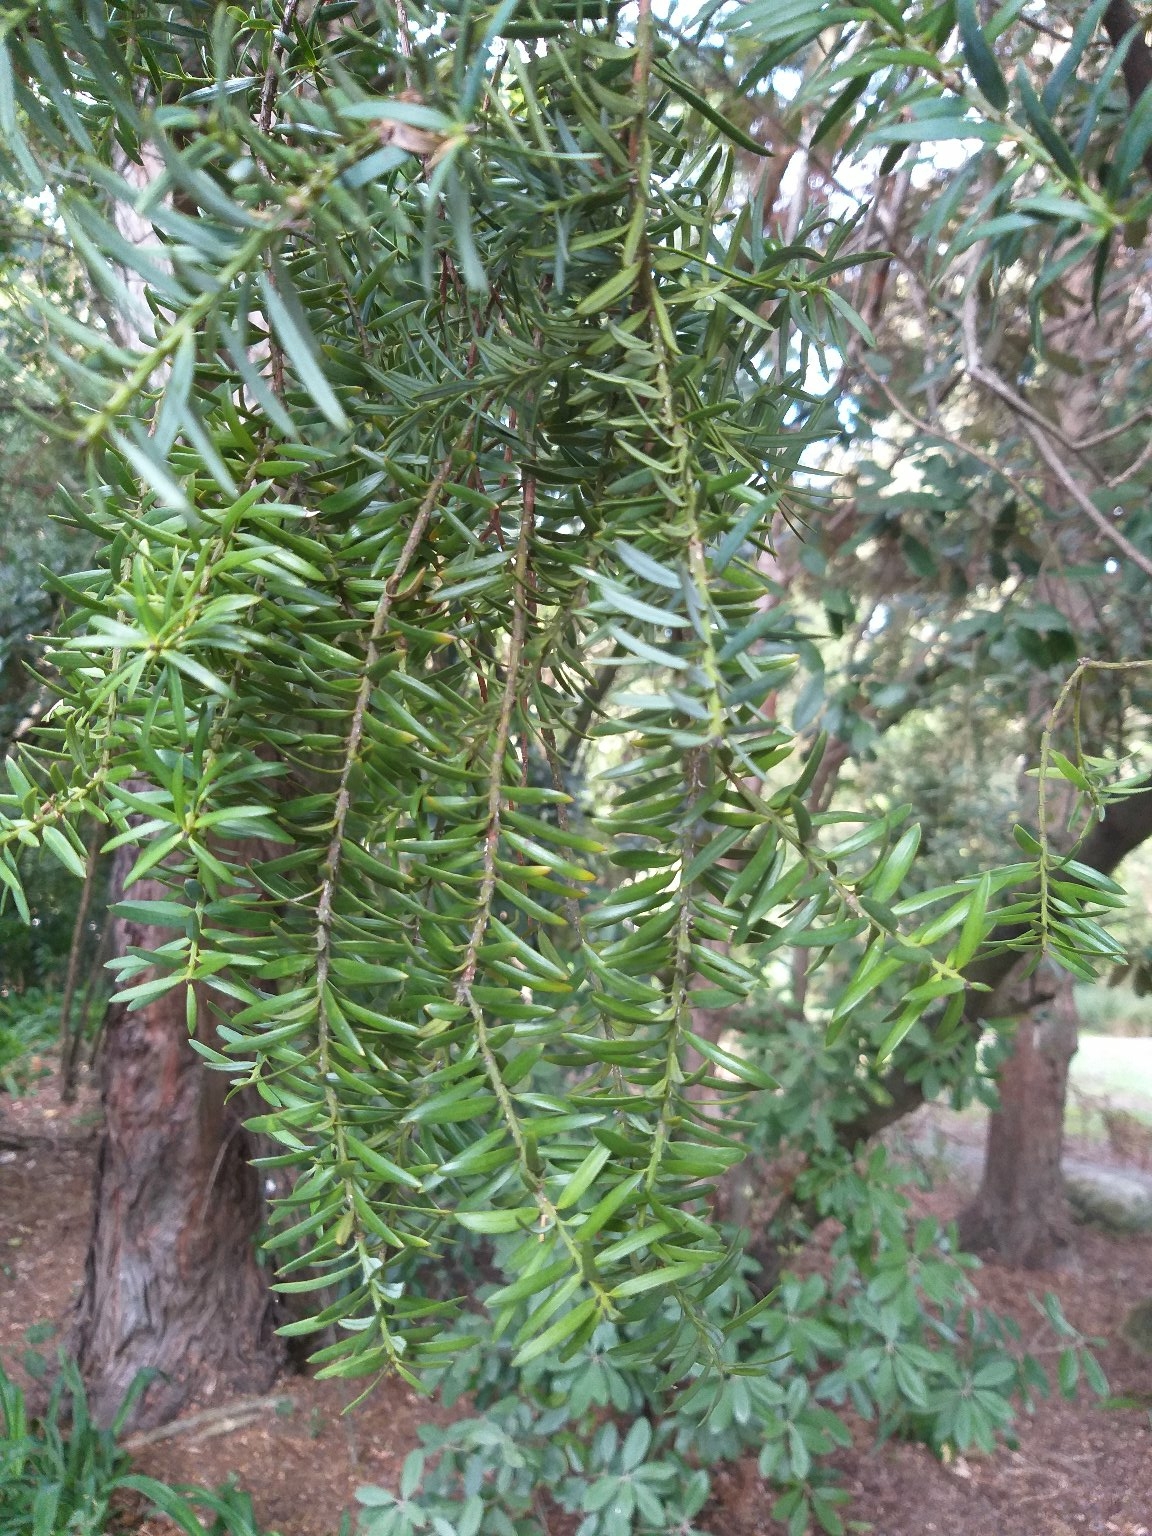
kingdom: Plantae
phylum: Tracheophyta
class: Pinopsida
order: Pinales
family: Podocarpaceae
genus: Podocarpus
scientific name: Podocarpus totara
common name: Totara
